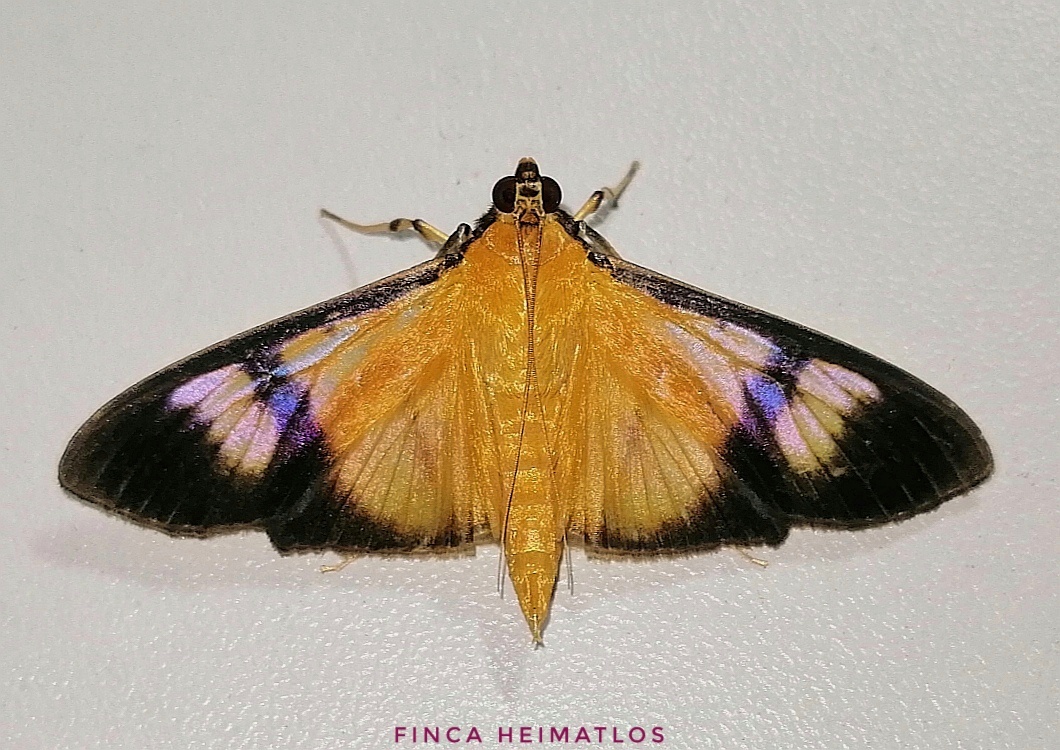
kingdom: Animalia
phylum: Arthropoda
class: Insecta
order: Lepidoptera
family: Crambidae
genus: Phostria
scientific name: Phostria dohrni
